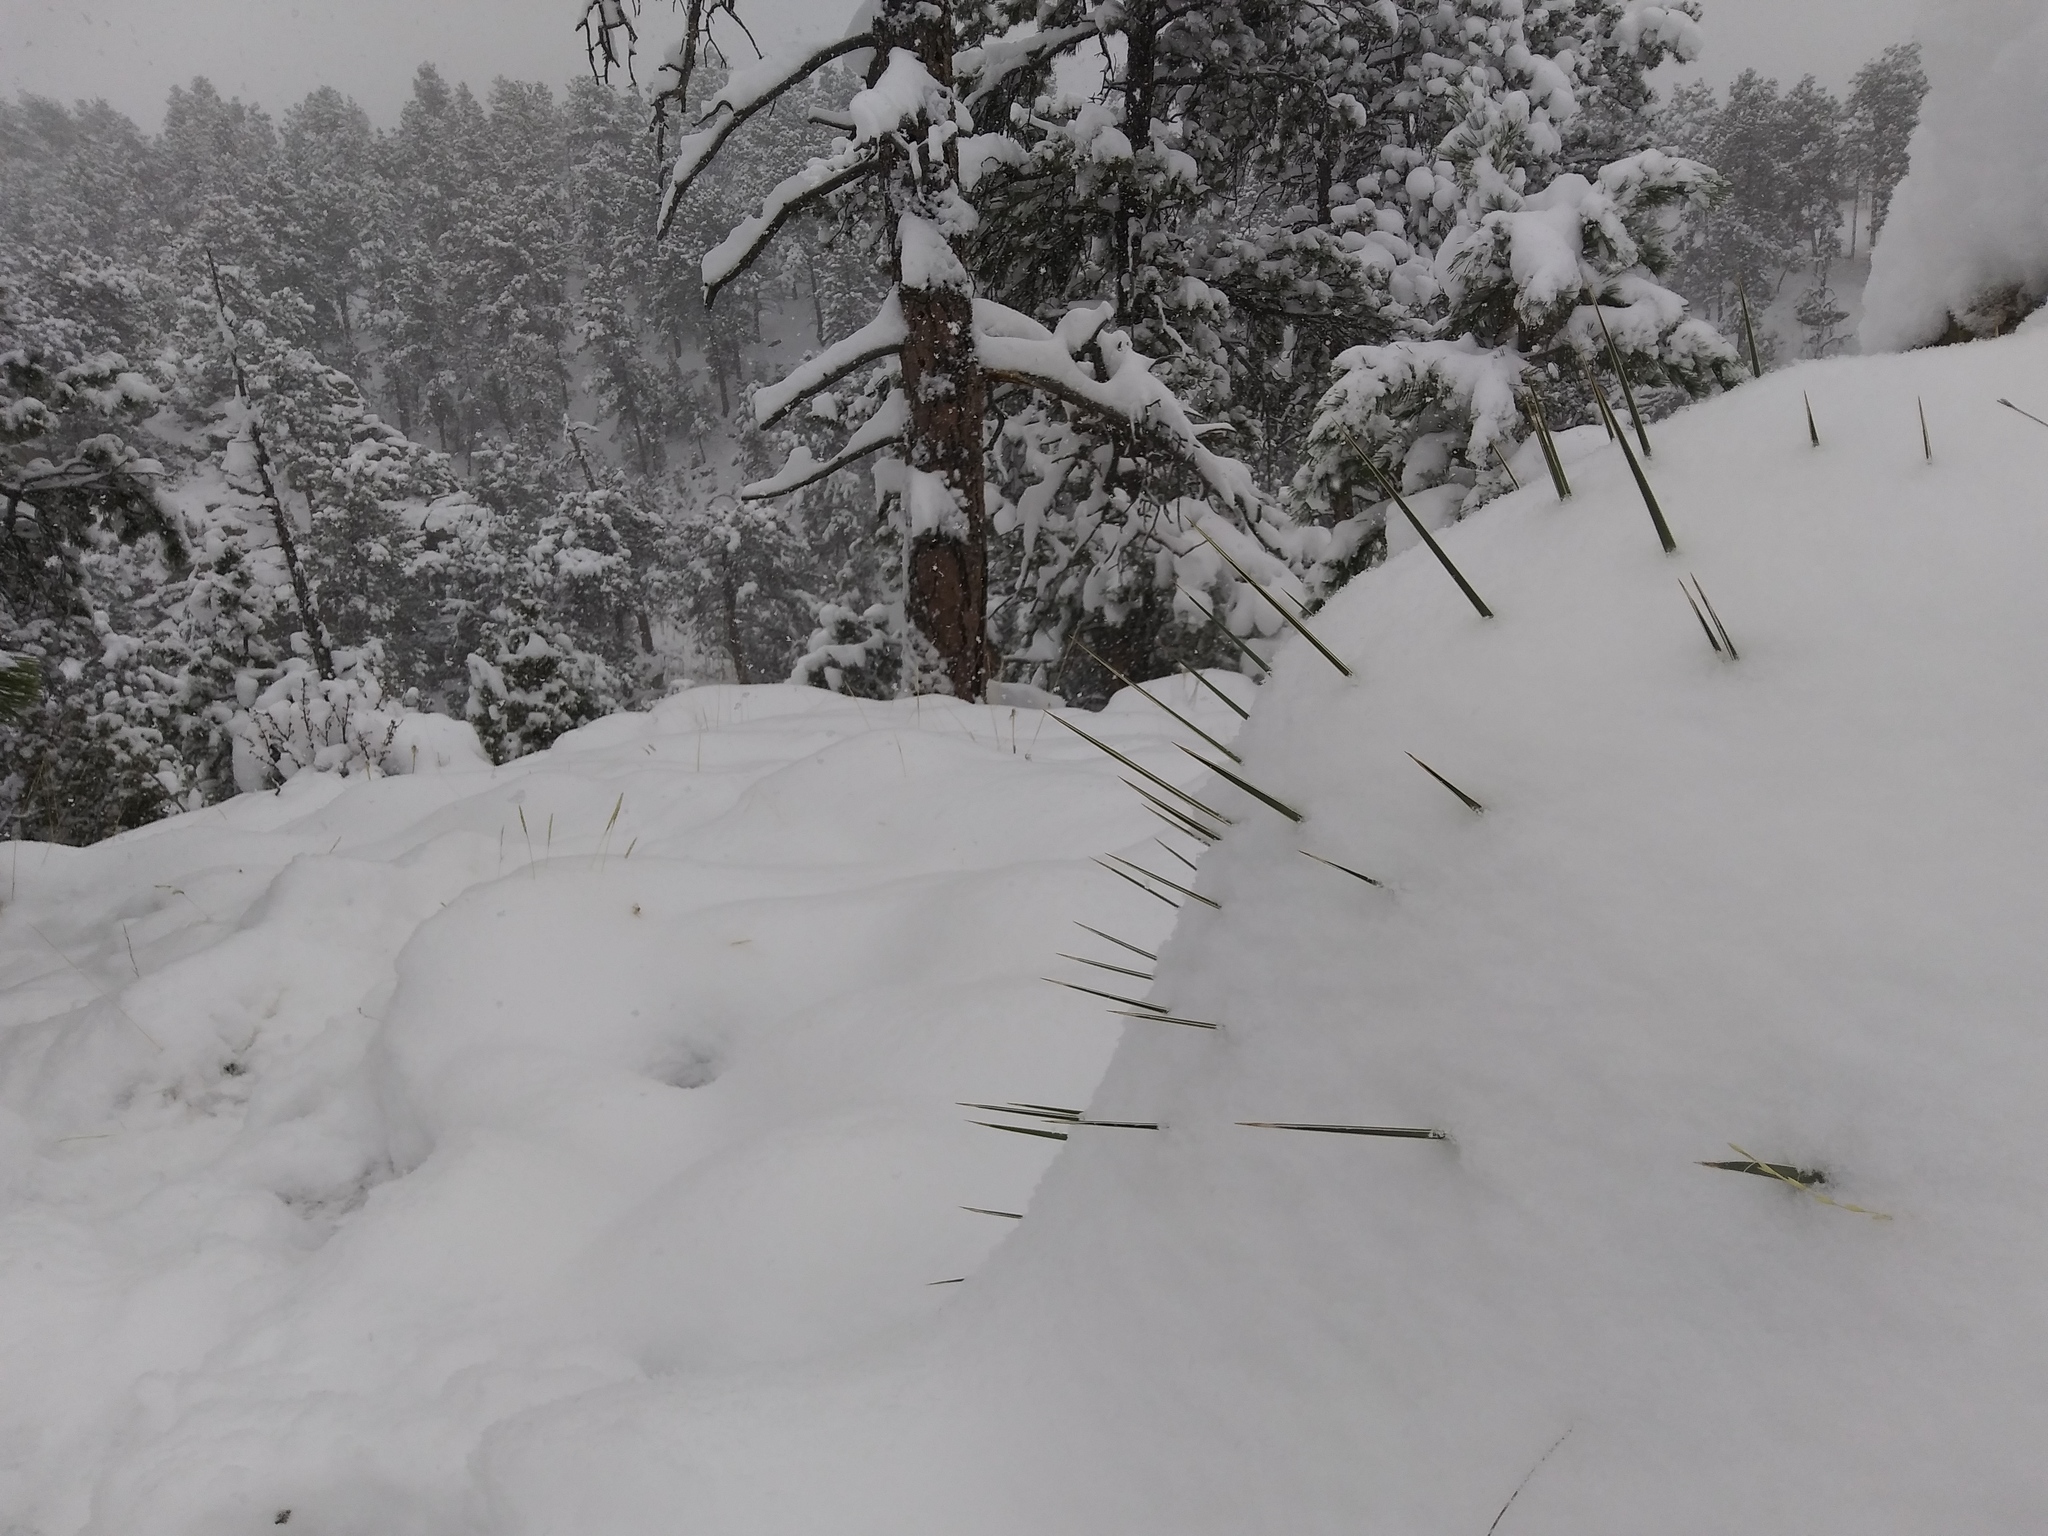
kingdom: Plantae
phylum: Tracheophyta
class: Liliopsida
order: Asparagales
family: Asparagaceae
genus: Yucca
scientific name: Yucca glauca
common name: Great plains yucca
